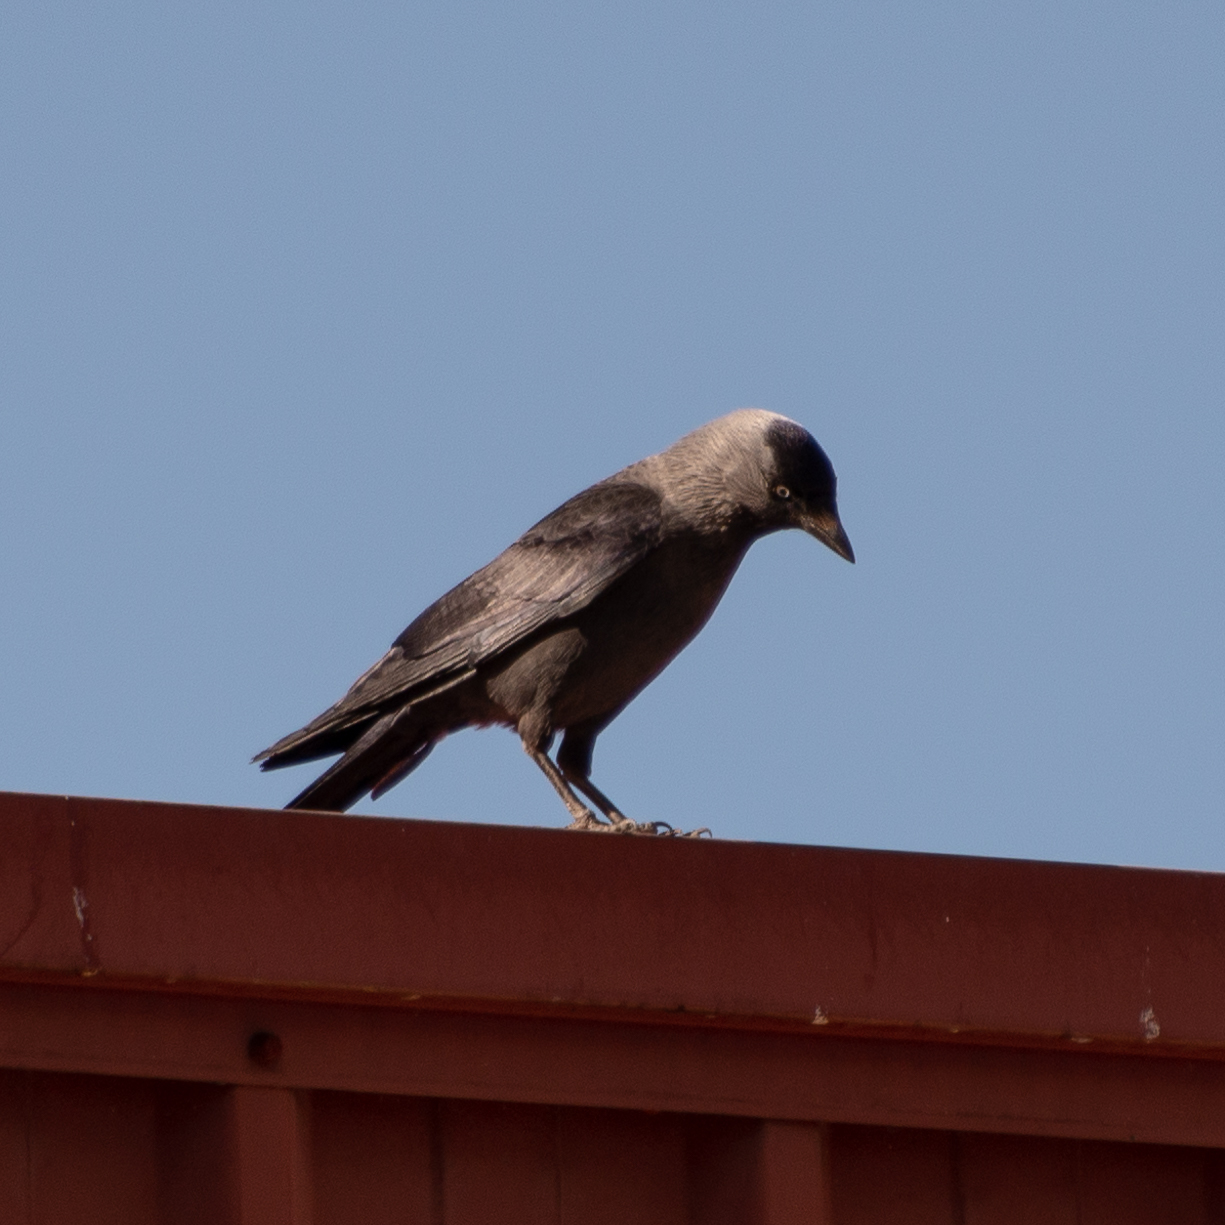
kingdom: Animalia
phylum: Chordata
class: Aves
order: Passeriformes
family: Corvidae
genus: Coloeus
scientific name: Coloeus monedula
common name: Western jackdaw
